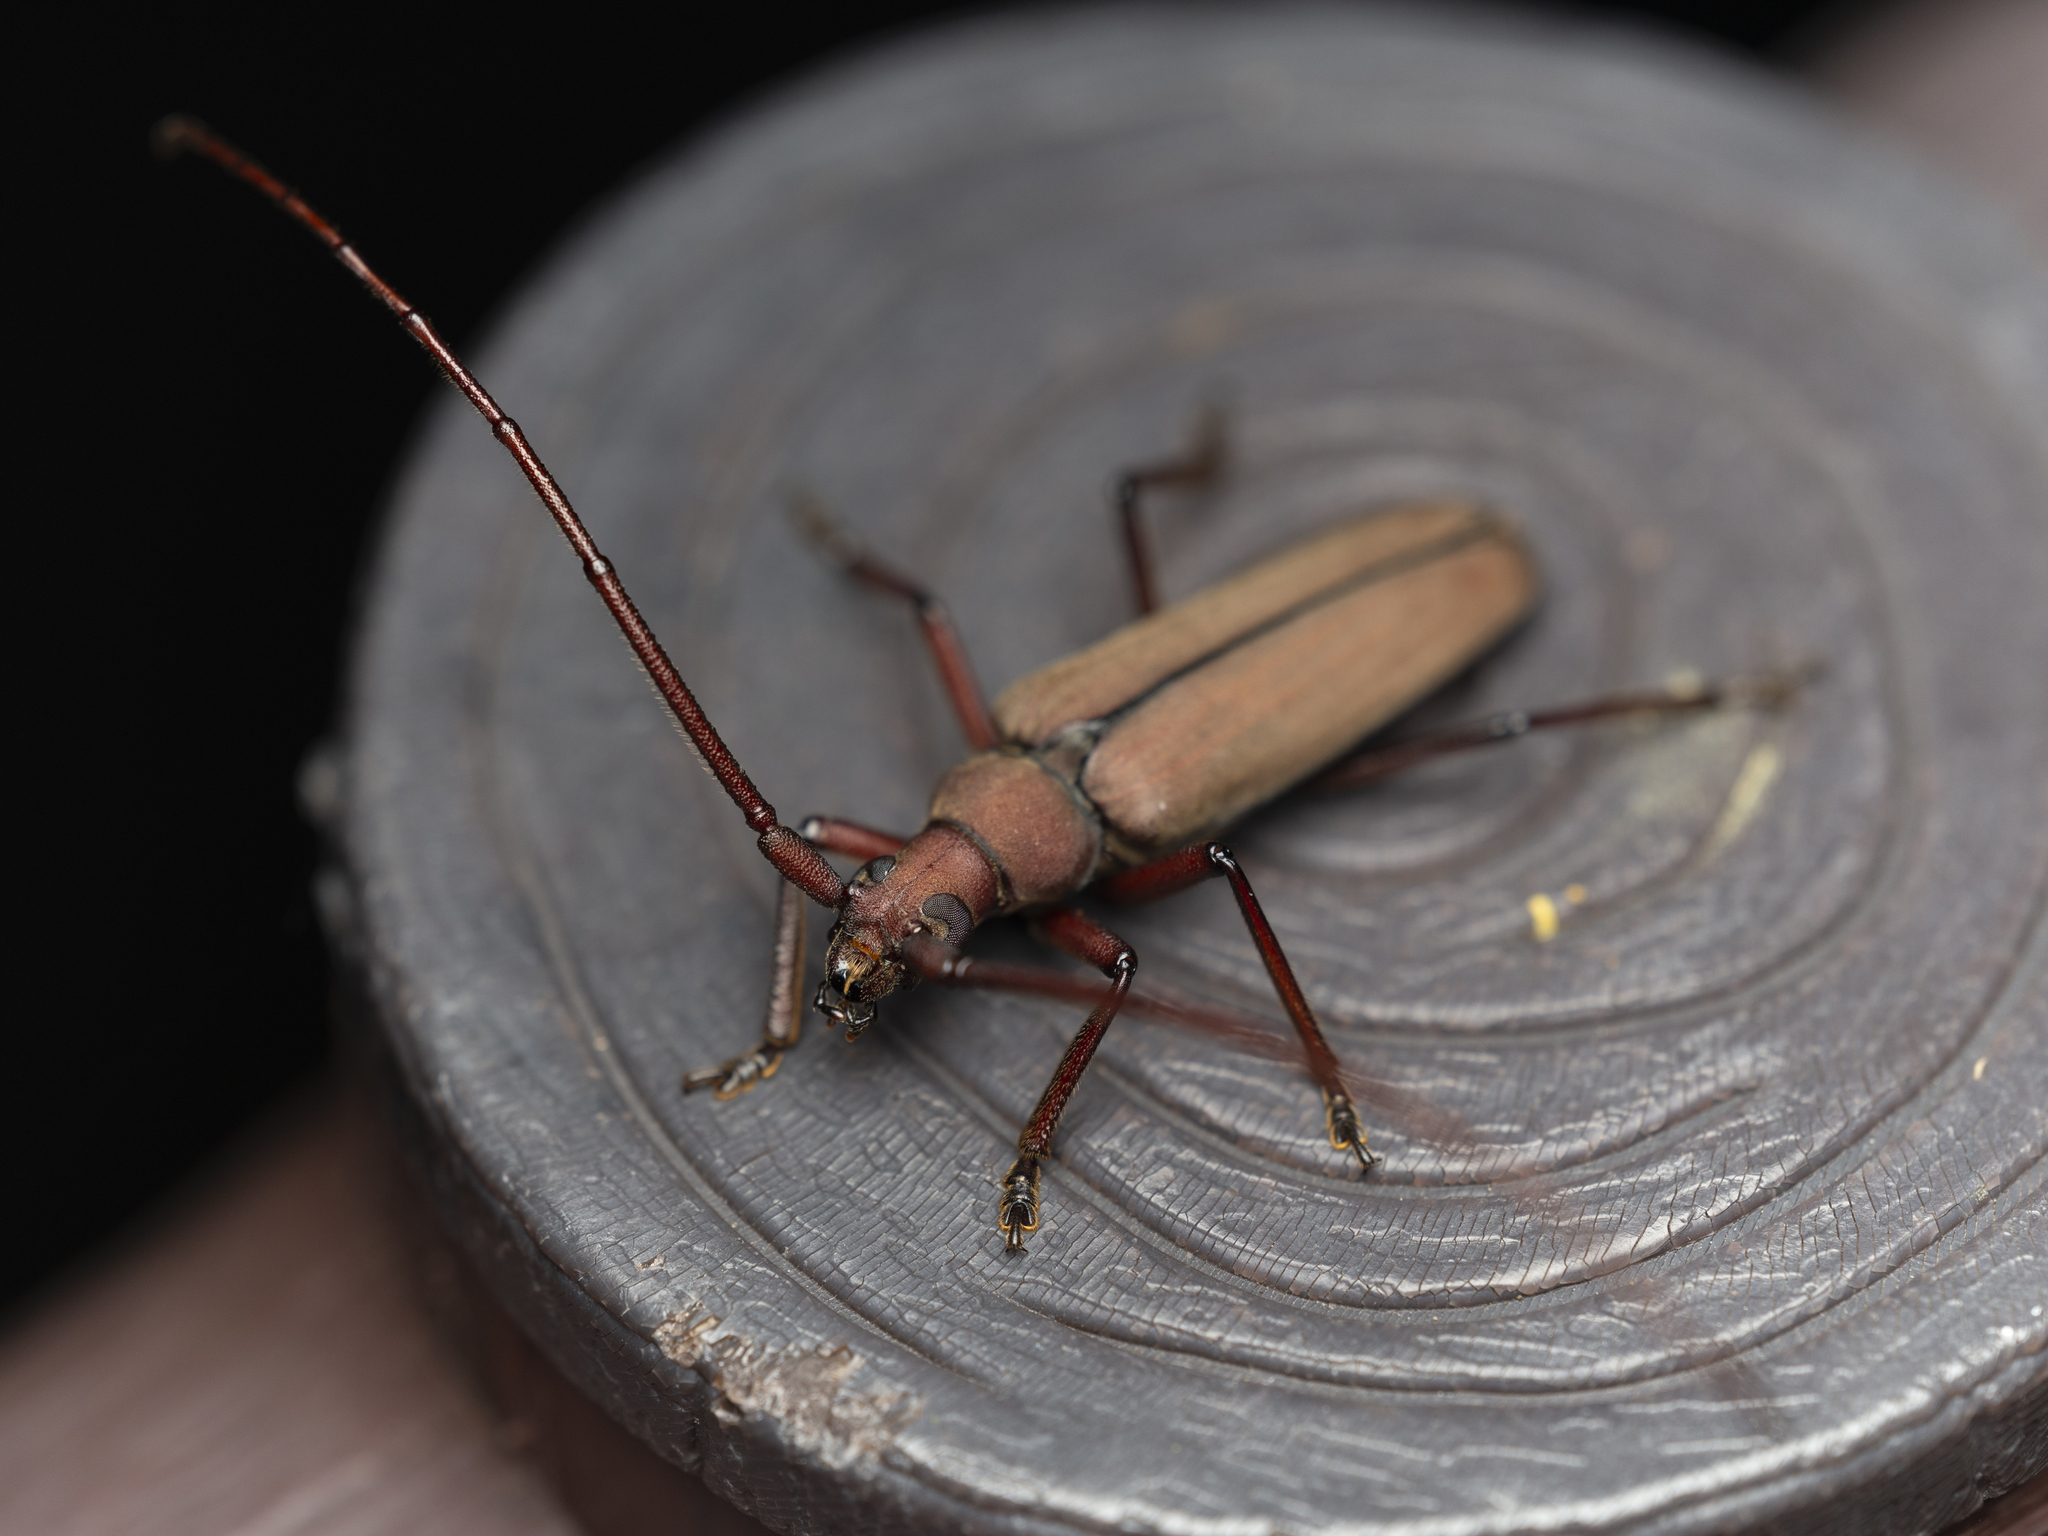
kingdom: Animalia
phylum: Arthropoda
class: Insecta
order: Coleoptera
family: Cerambycidae
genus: Aegolipton
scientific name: Aegolipton marginale
